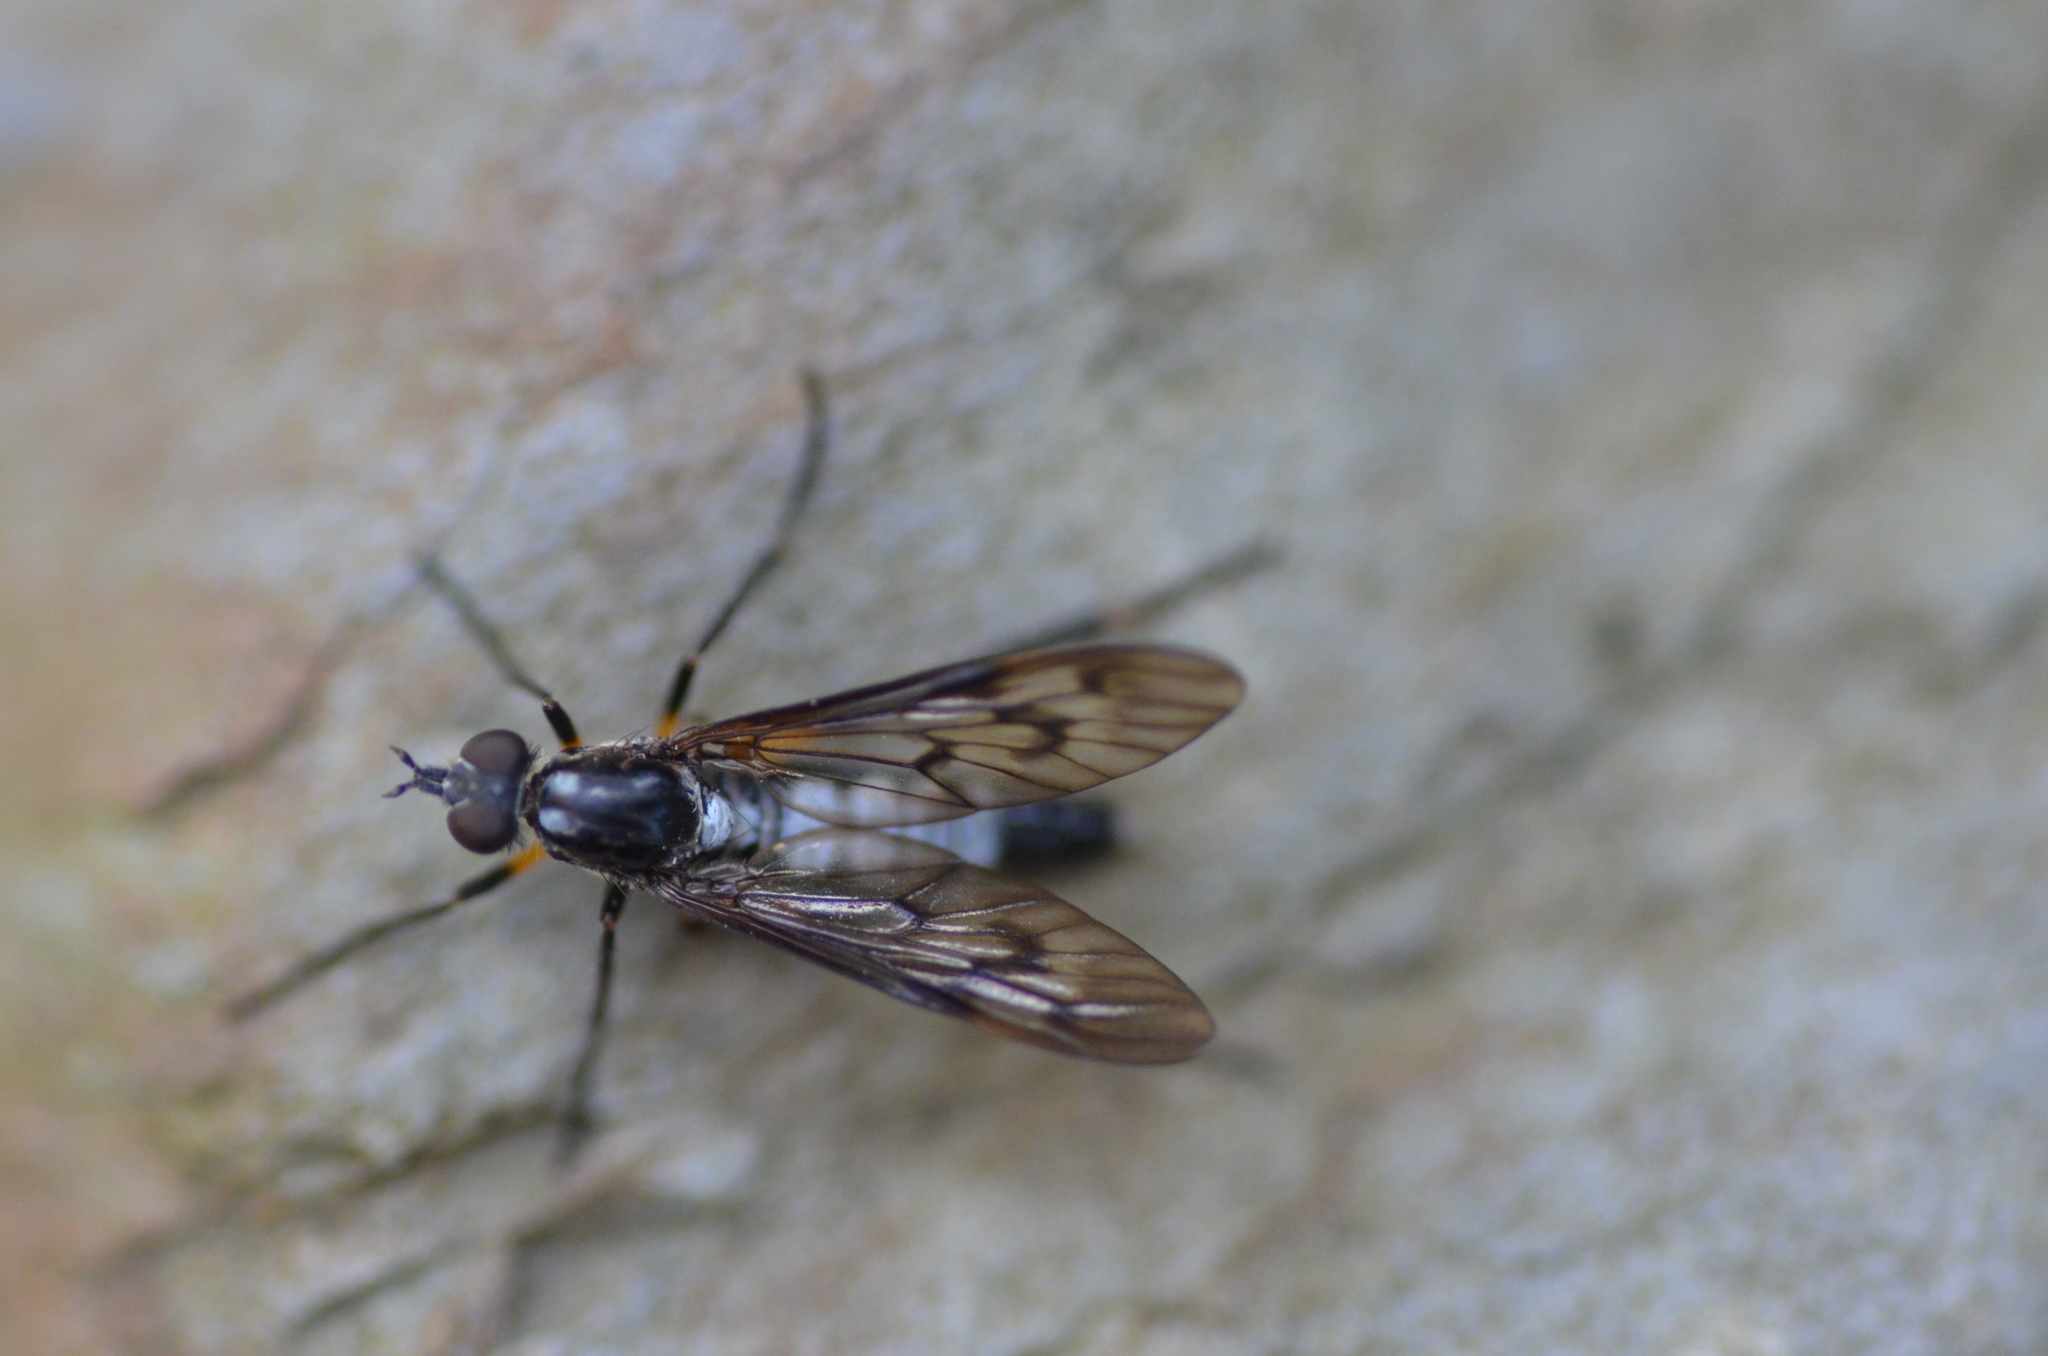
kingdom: Animalia
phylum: Arthropoda
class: Insecta
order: Diptera
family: Therevidae
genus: Anabarhynchus
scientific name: Anabarhynchus micans
